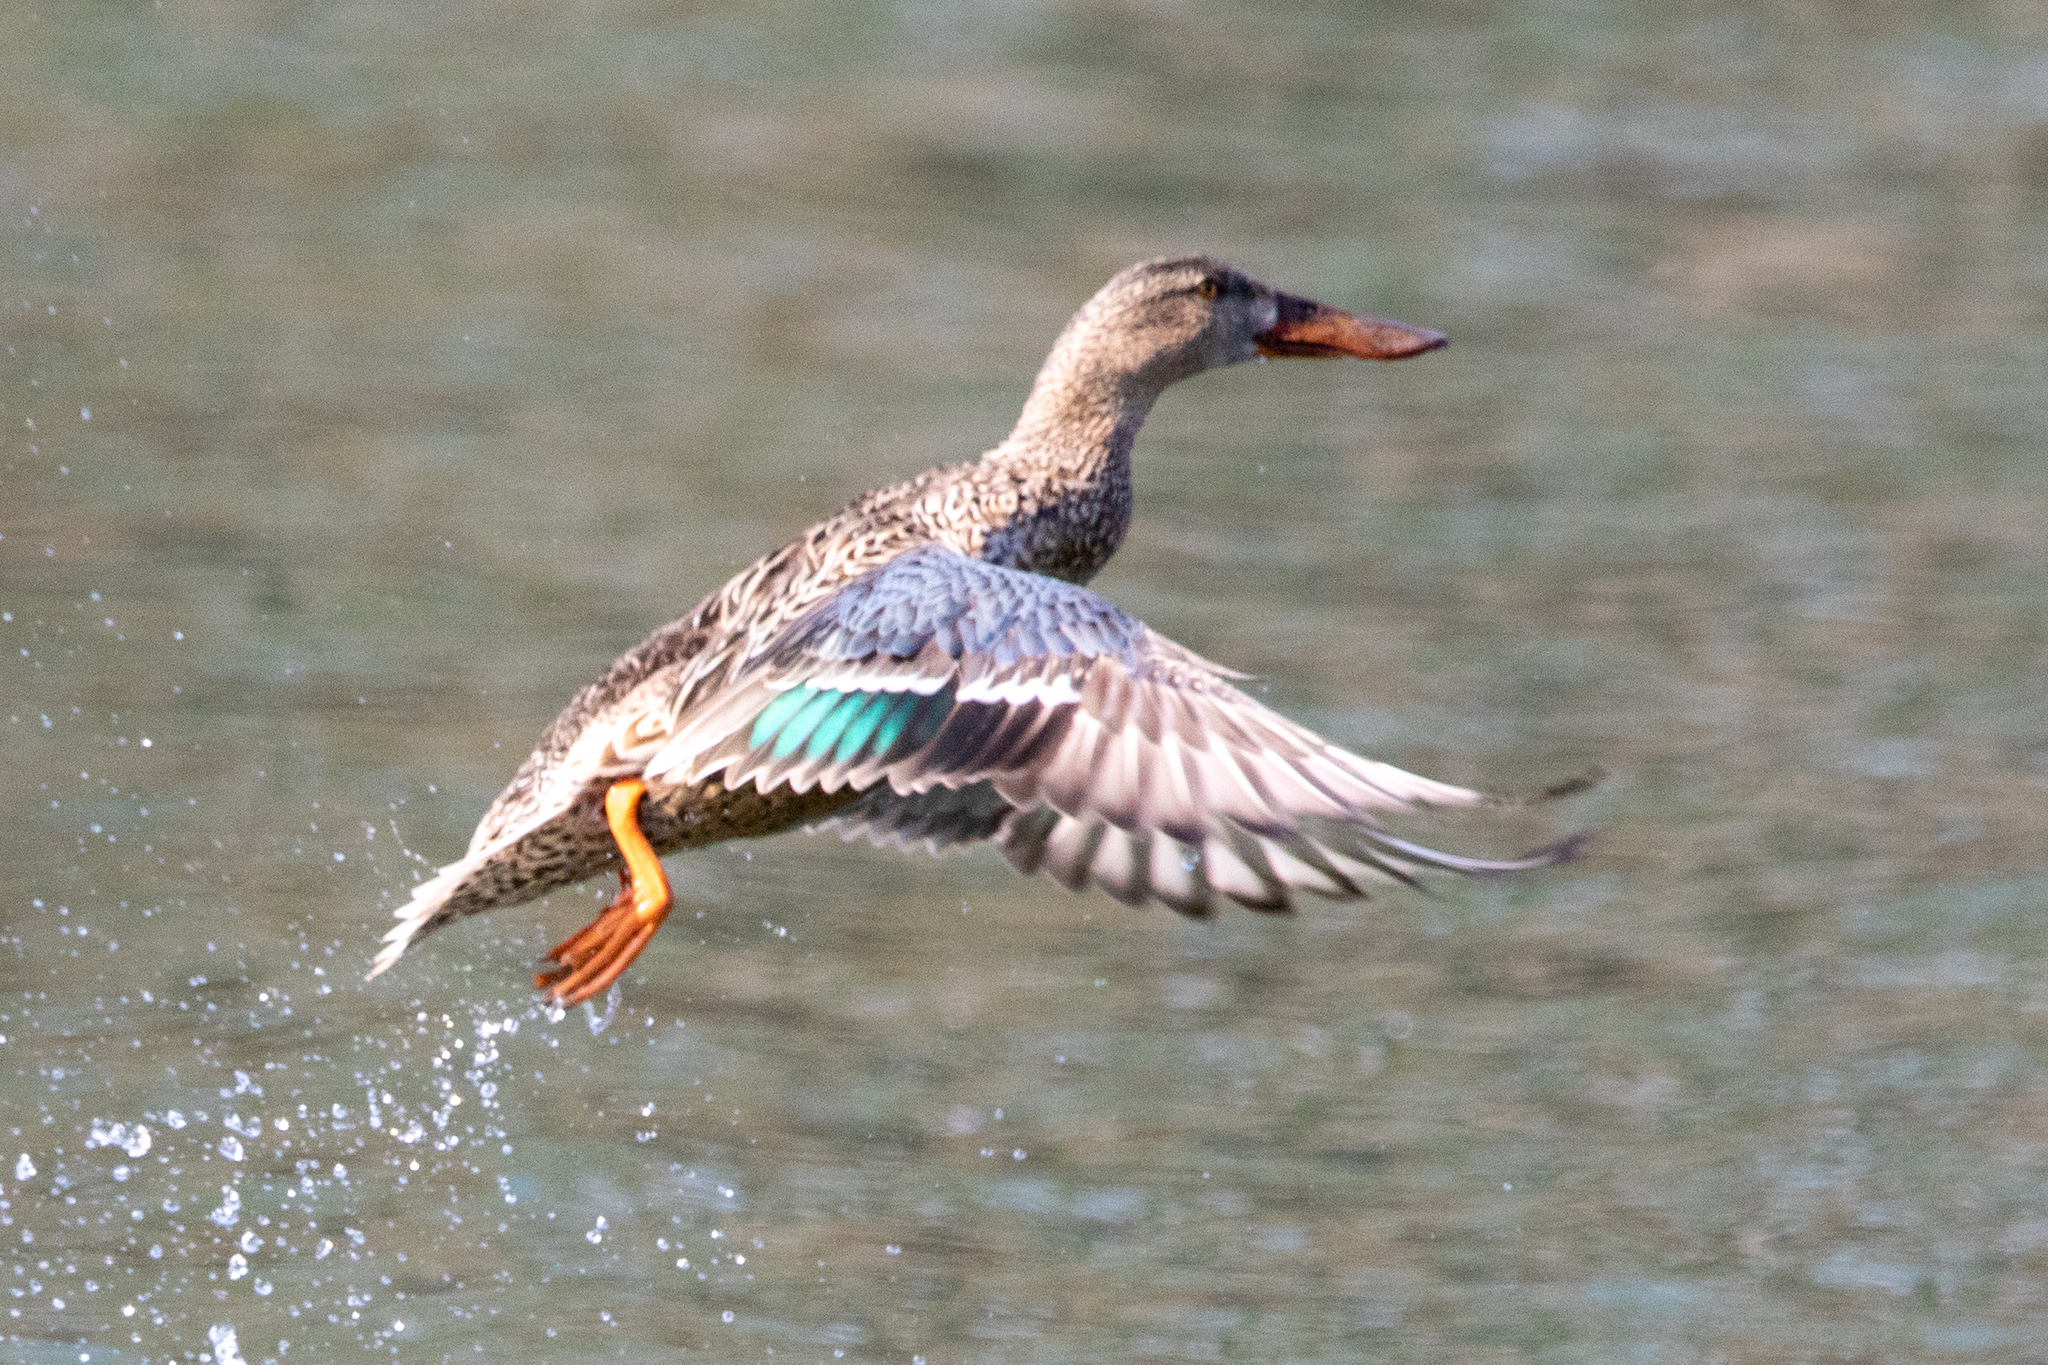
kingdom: Animalia
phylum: Chordata
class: Aves
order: Anseriformes
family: Anatidae
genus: Spatula
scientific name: Spatula clypeata
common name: Northern shoveler
